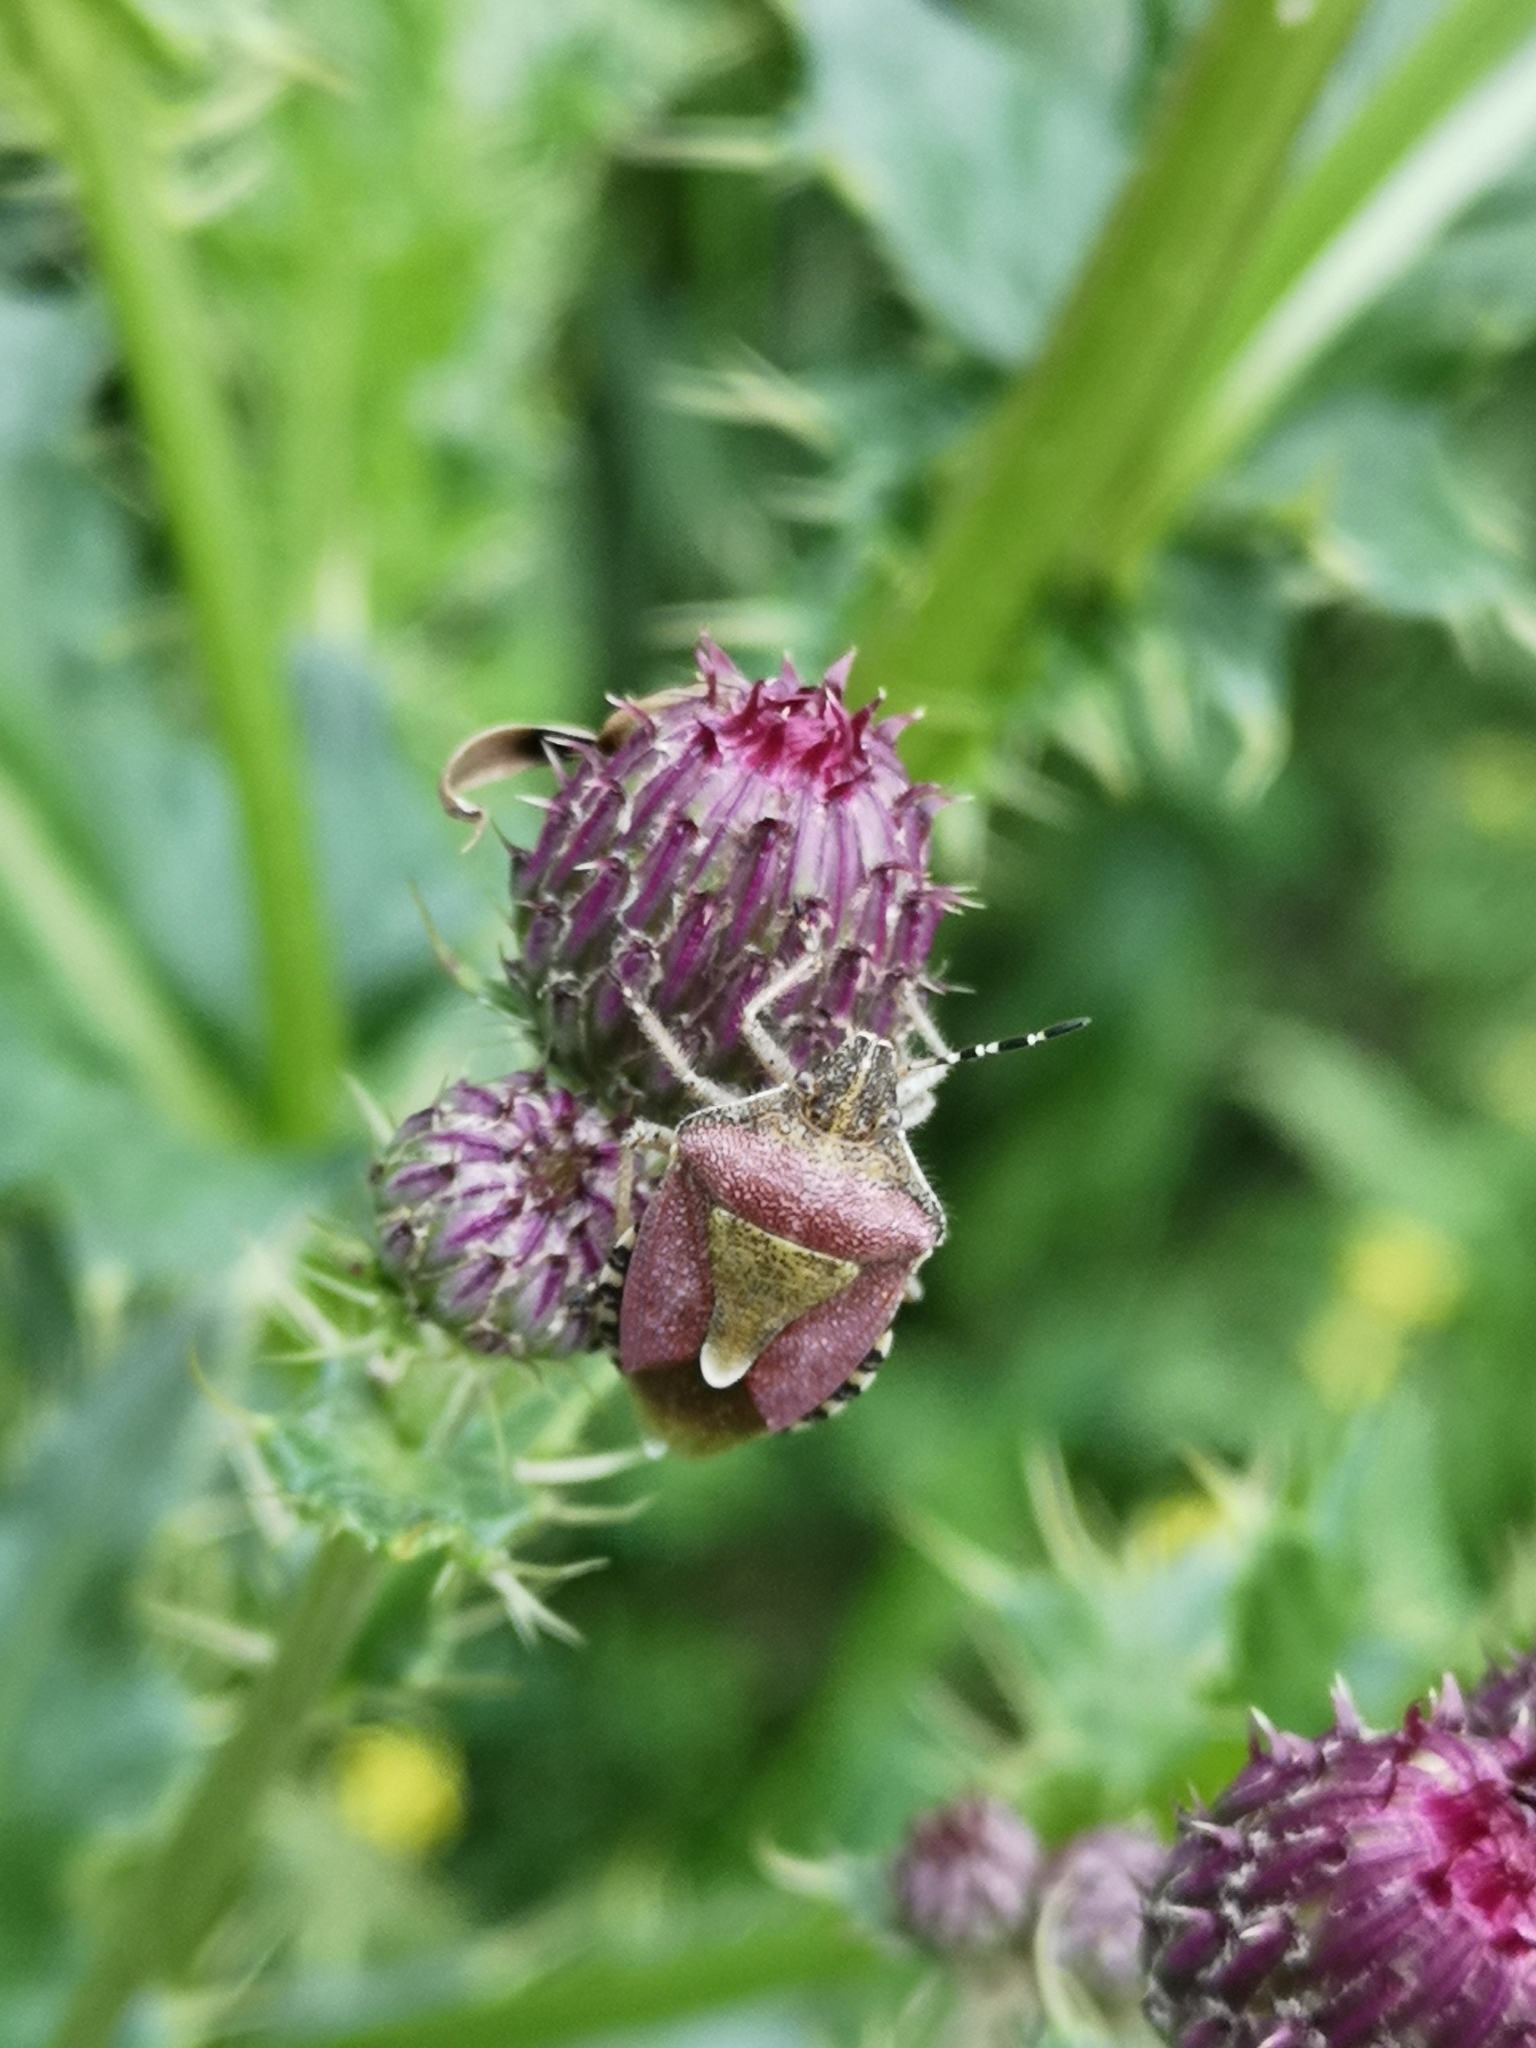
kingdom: Animalia
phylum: Arthropoda
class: Insecta
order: Hemiptera
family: Pentatomidae
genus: Dolycoris
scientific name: Dolycoris baccarum
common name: Sloe bug
